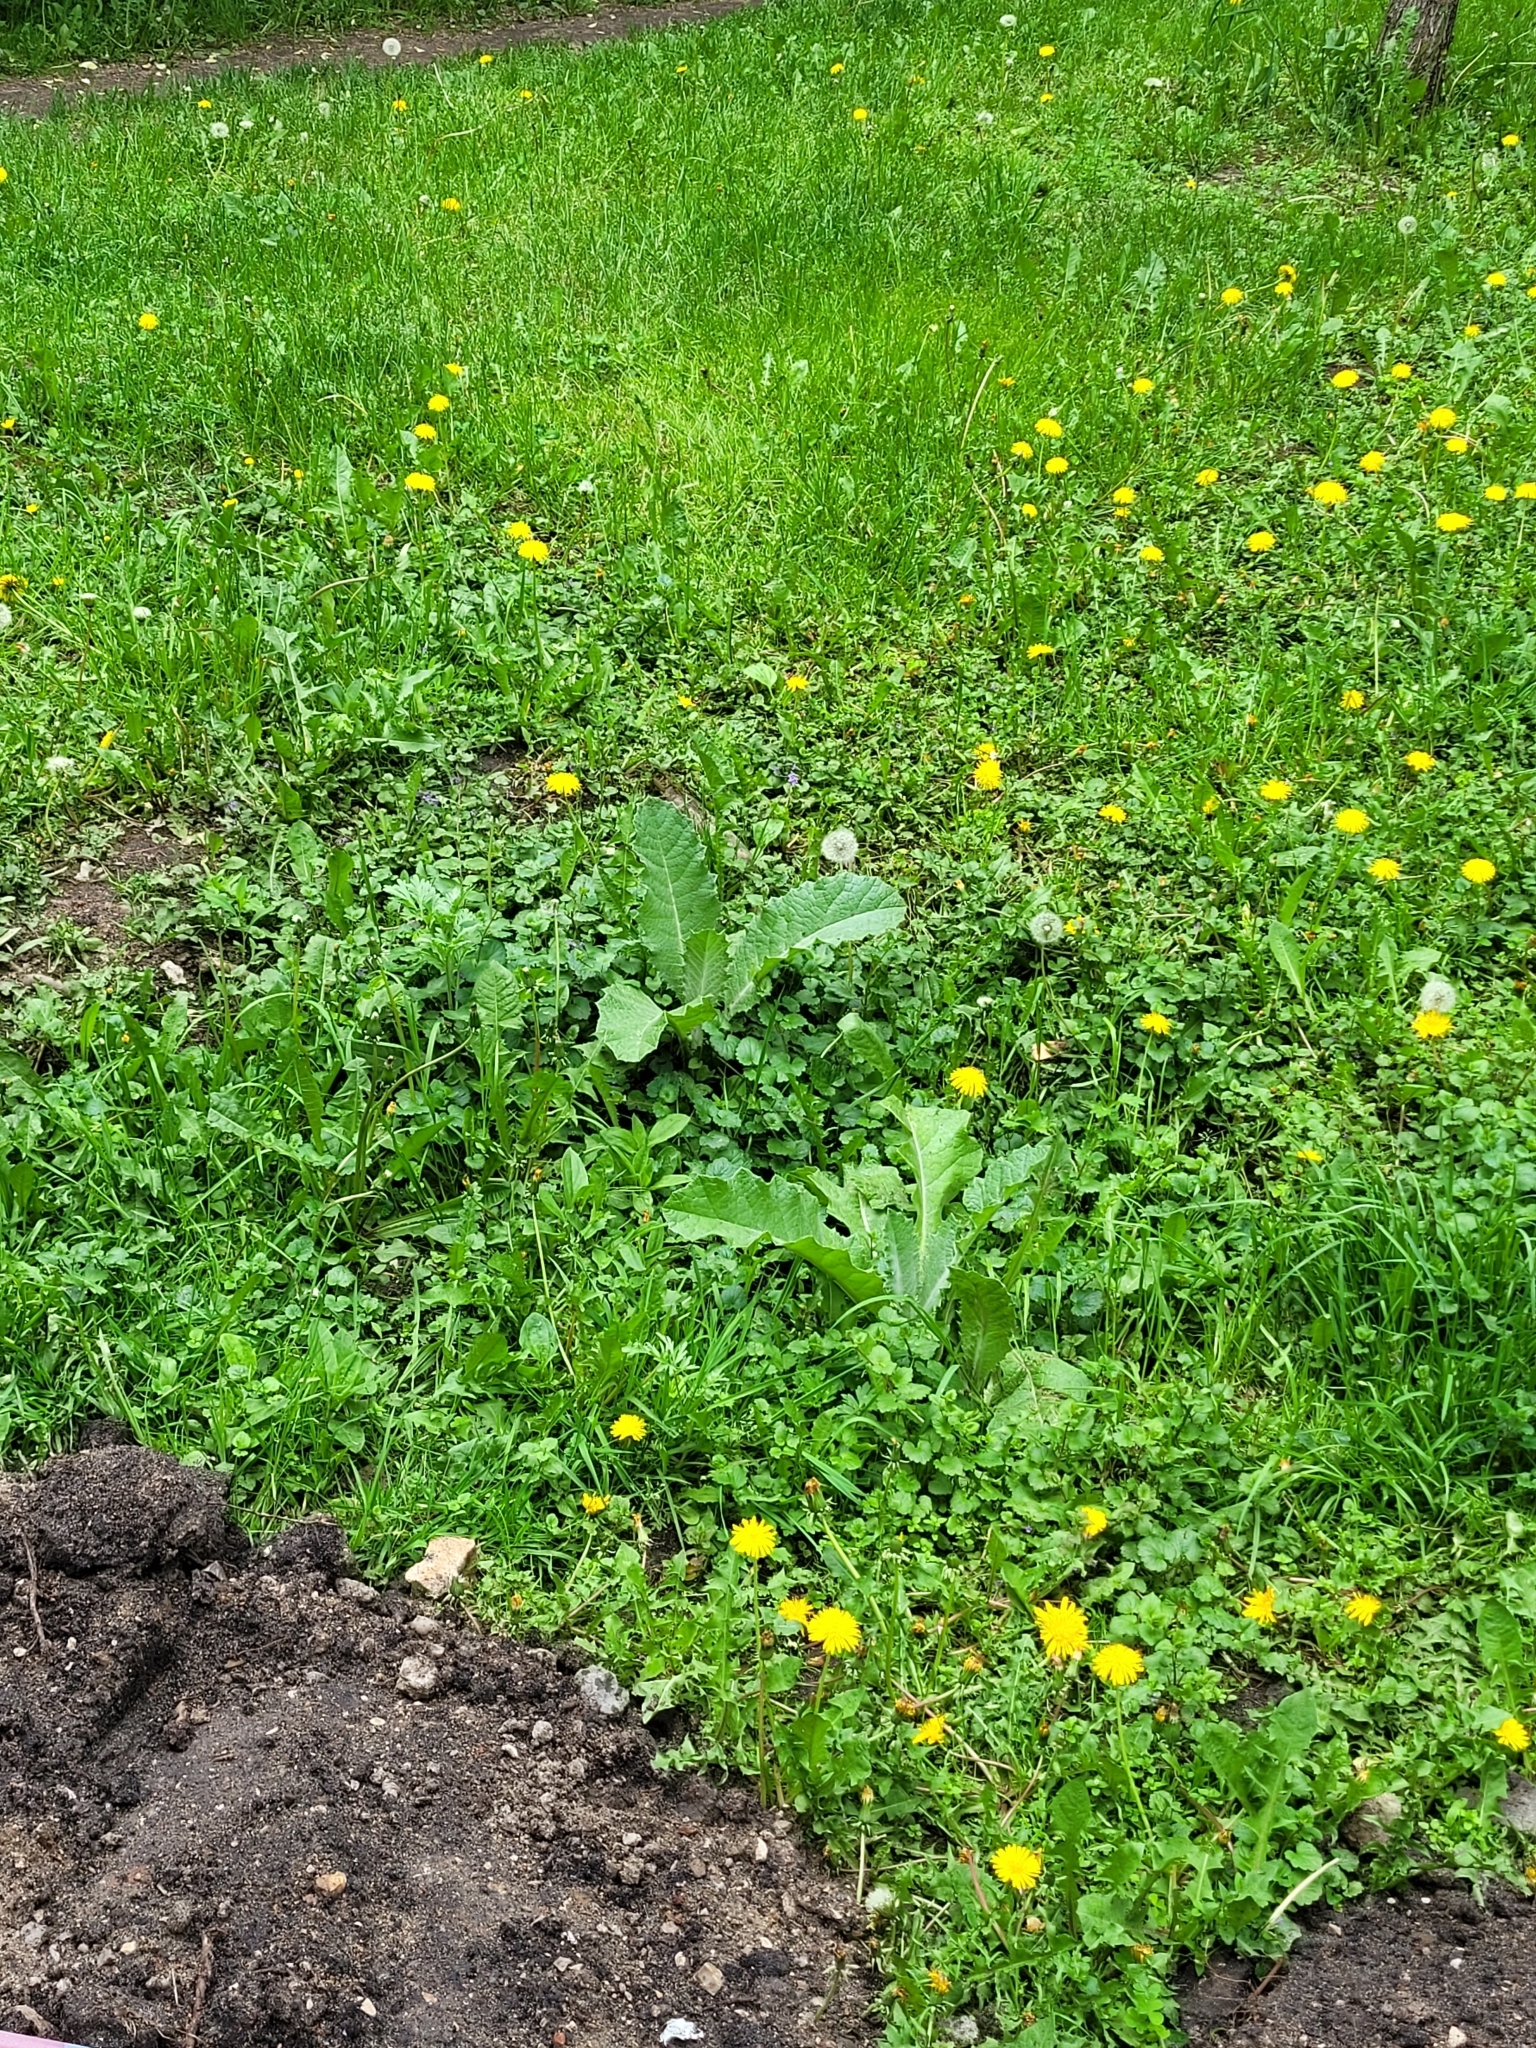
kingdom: Plantae
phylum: Tracheophyta
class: Magnoliopsida
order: Asterales
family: Asteraceae
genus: Onopordum
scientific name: Onopordum acanthium
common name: Scotch thistle
